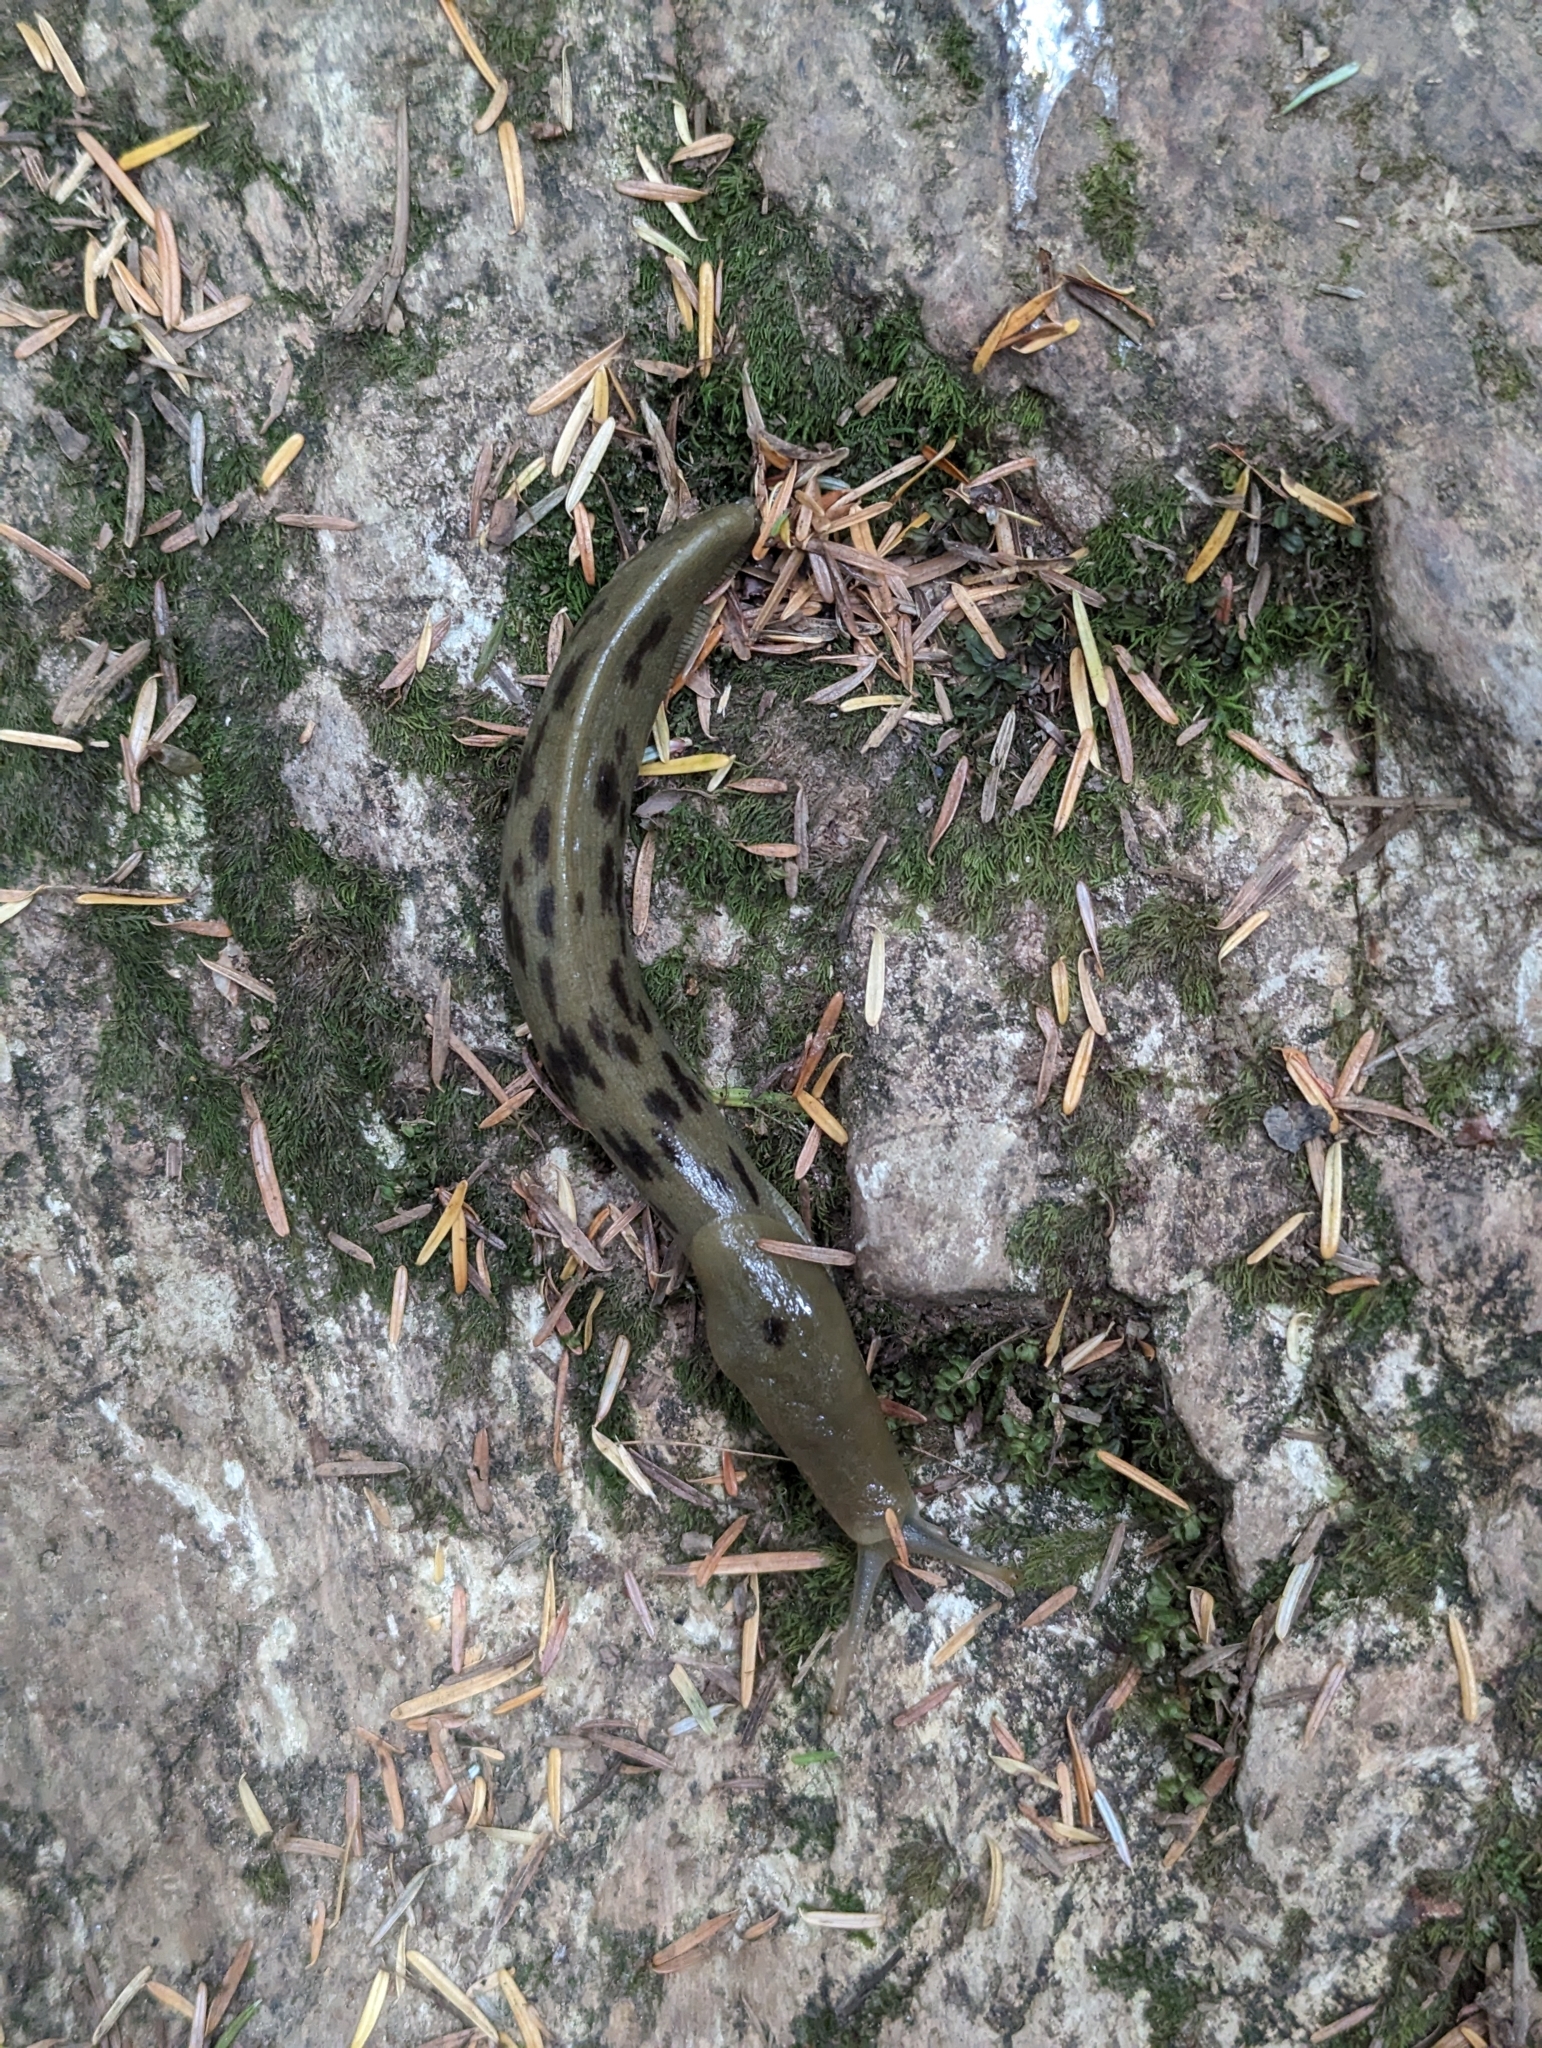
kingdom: Animalia
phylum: Mollusca
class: Gastropoda
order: Stylommatophora
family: Ariolimacidae
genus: Ariolimax
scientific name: Ariolimax columbianus
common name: Pacific banana slug
